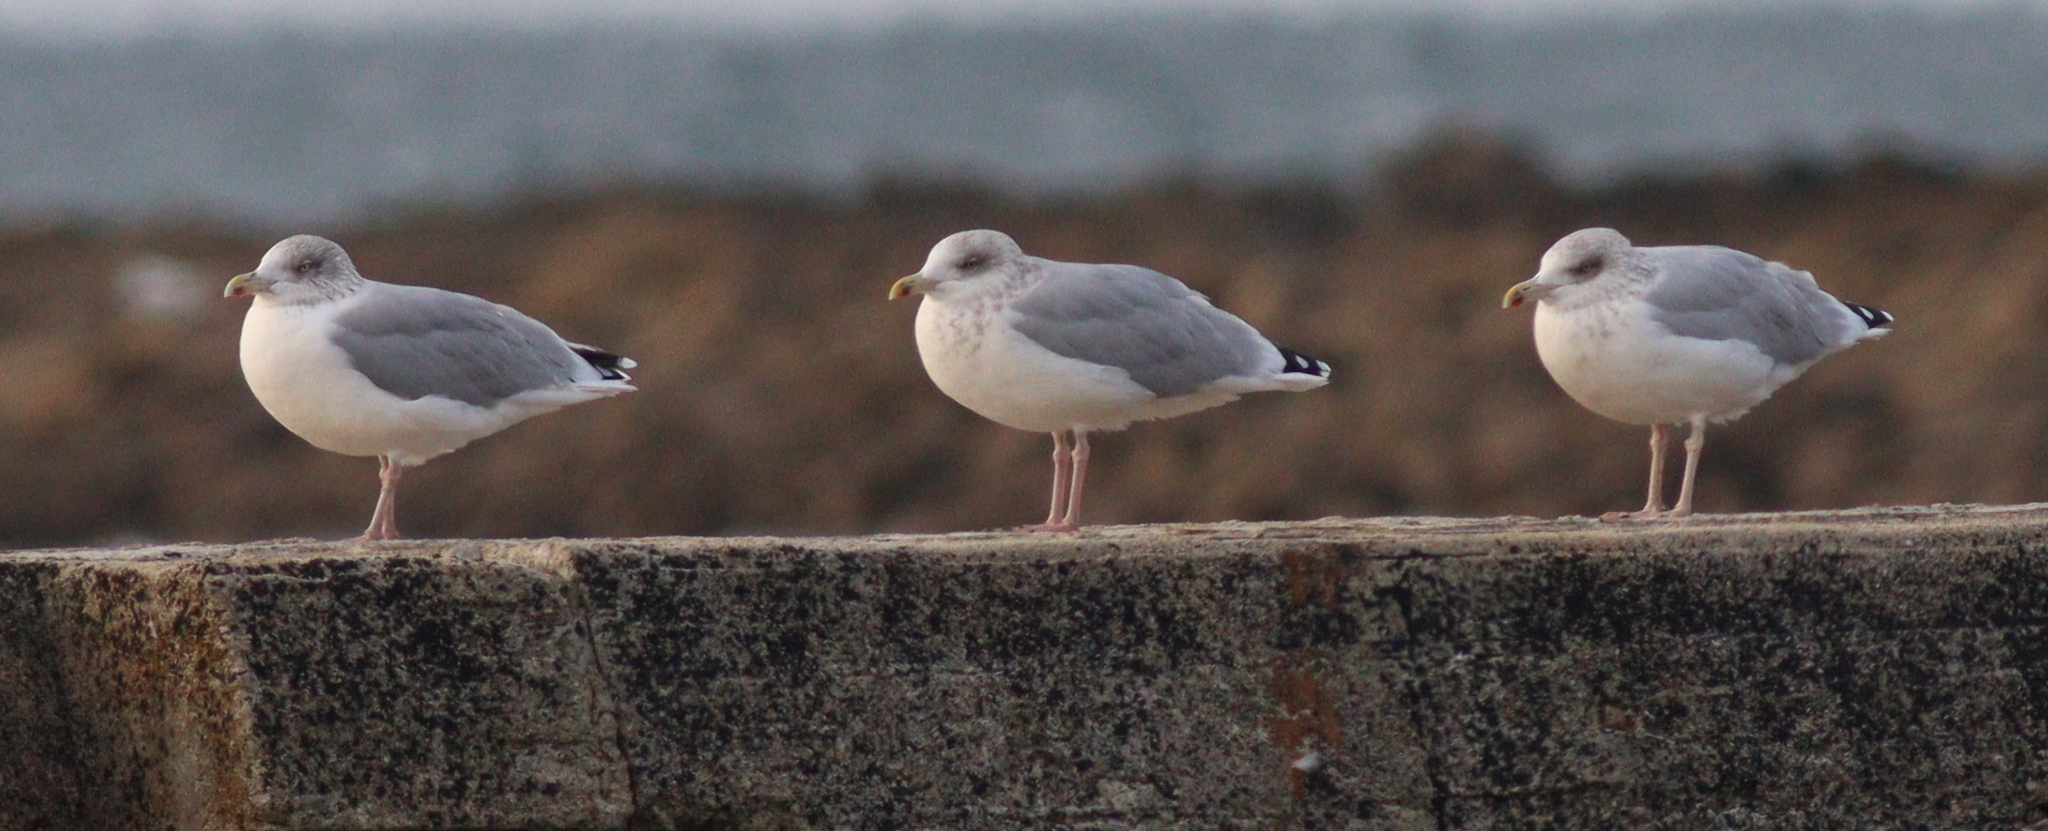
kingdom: Animalia
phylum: Chordata
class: Aves
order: Charadriiformes
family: Laridae
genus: Larus
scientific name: Larus argentatus
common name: Herring gull
